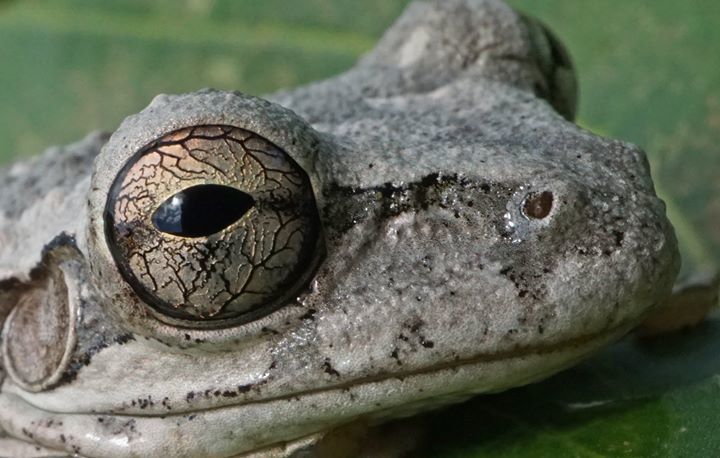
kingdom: Animalia
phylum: Chordata
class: Amphibia
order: Anura
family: Hylidae
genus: Osteopilus
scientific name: Osteopilus septentrionalis
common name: Cuban treefrog
